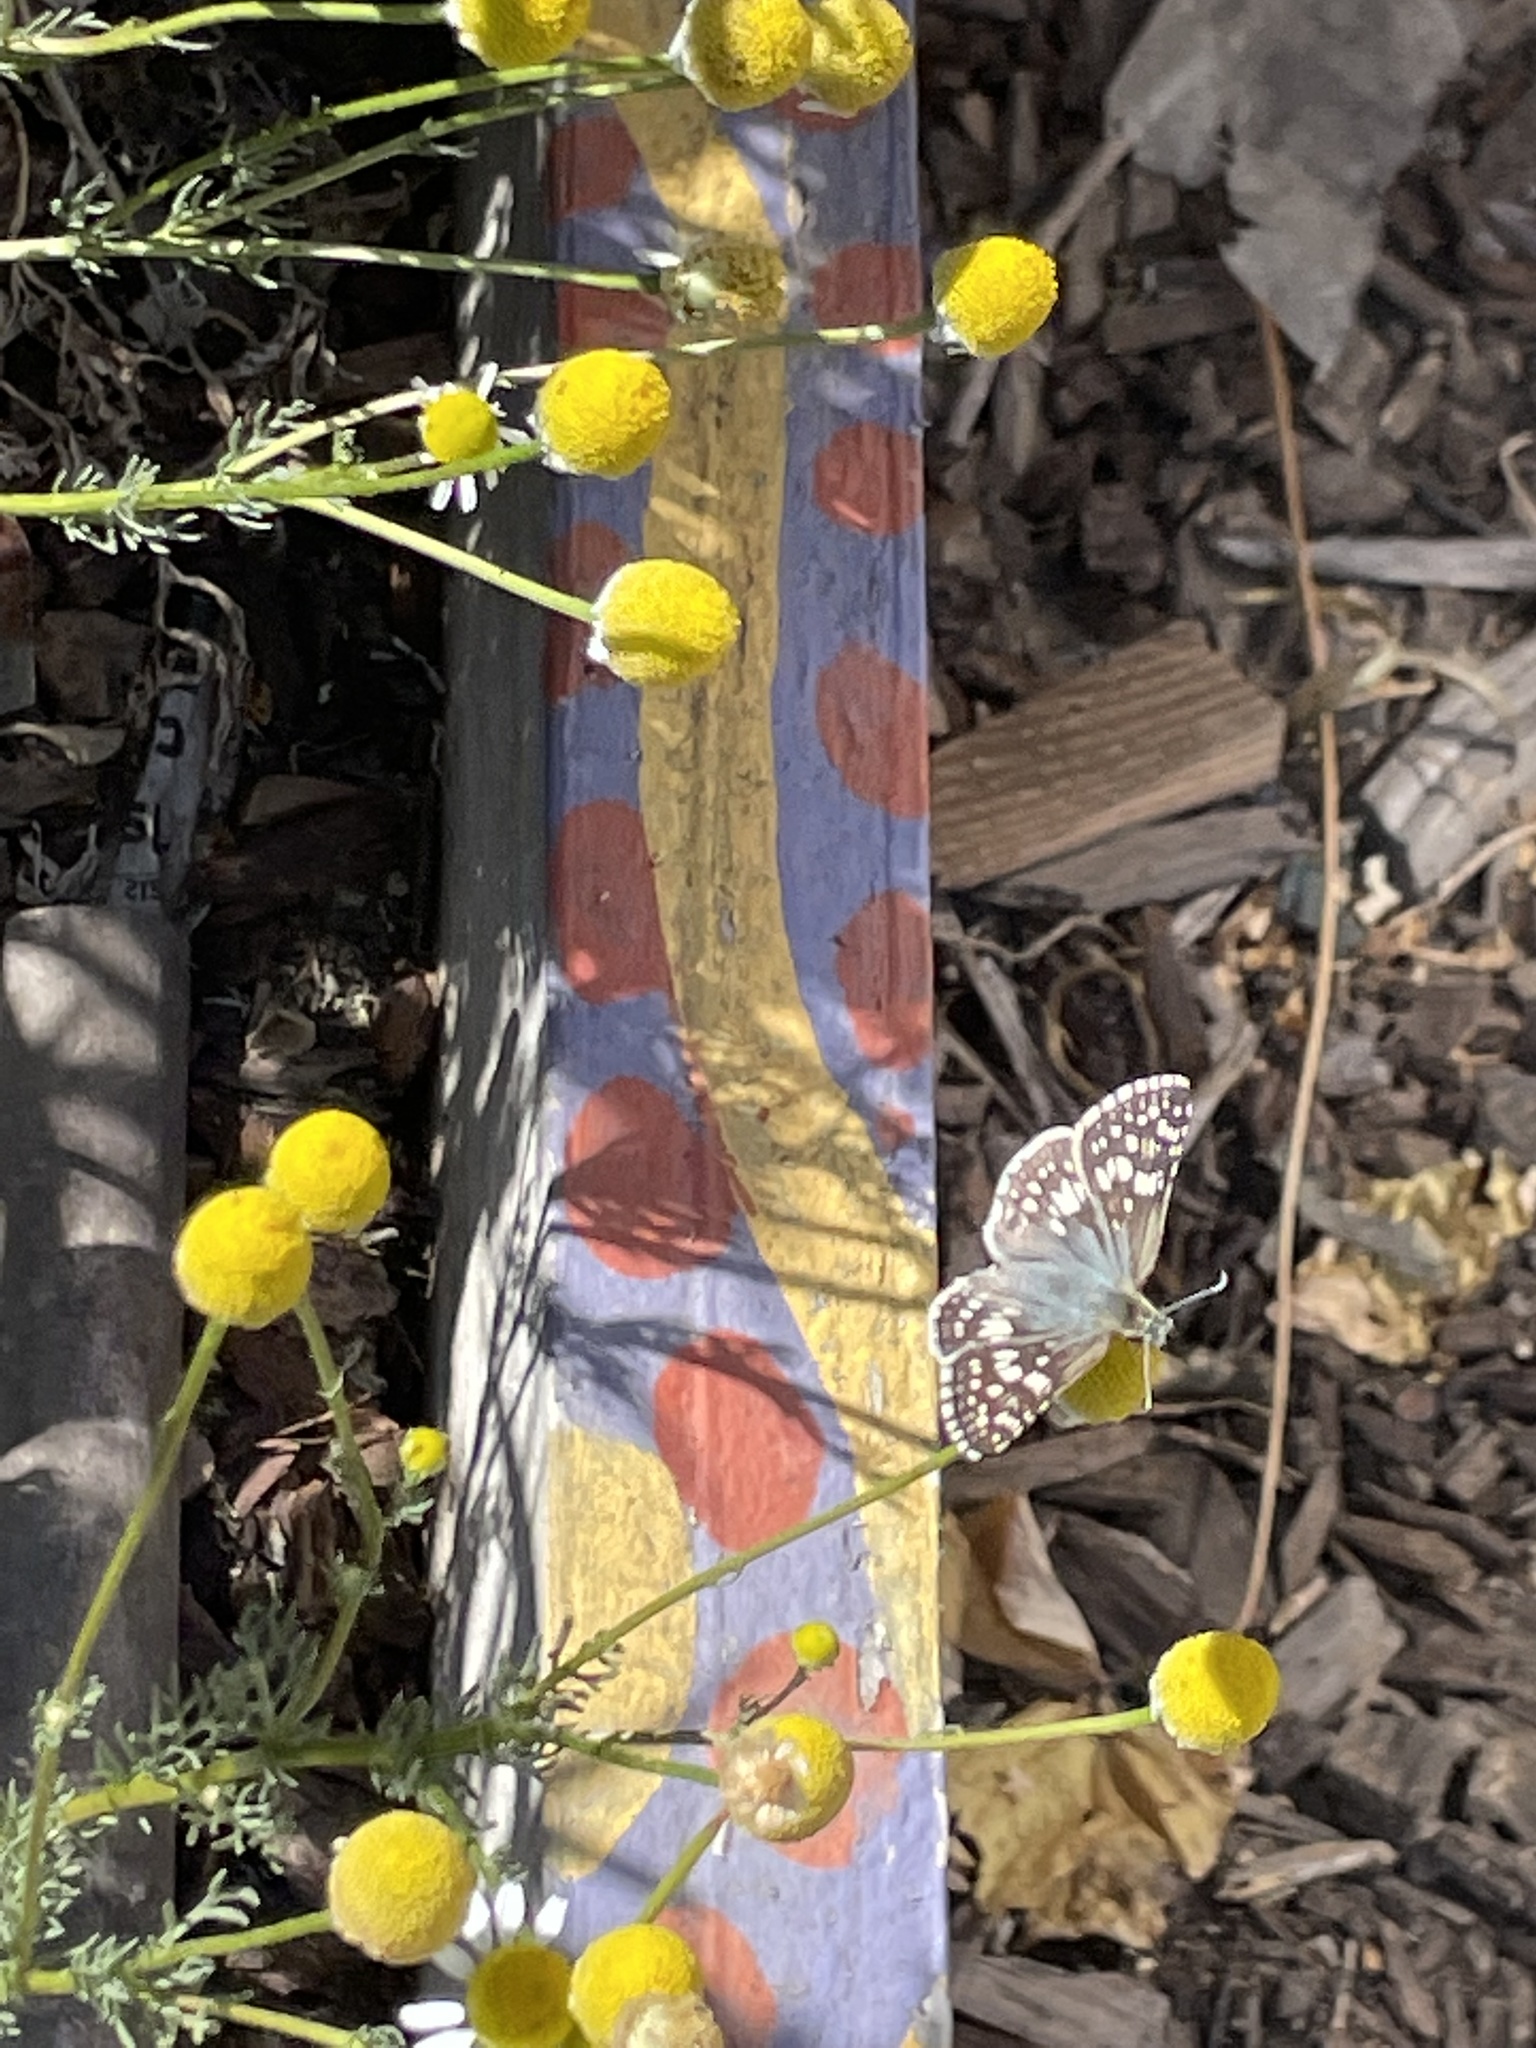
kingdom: Animalia
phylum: Arthropoda
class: Insecta
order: Lepidoptera
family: Hesperiidae
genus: Burnsius
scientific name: Burnsius communis
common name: Common checkered-skipper
